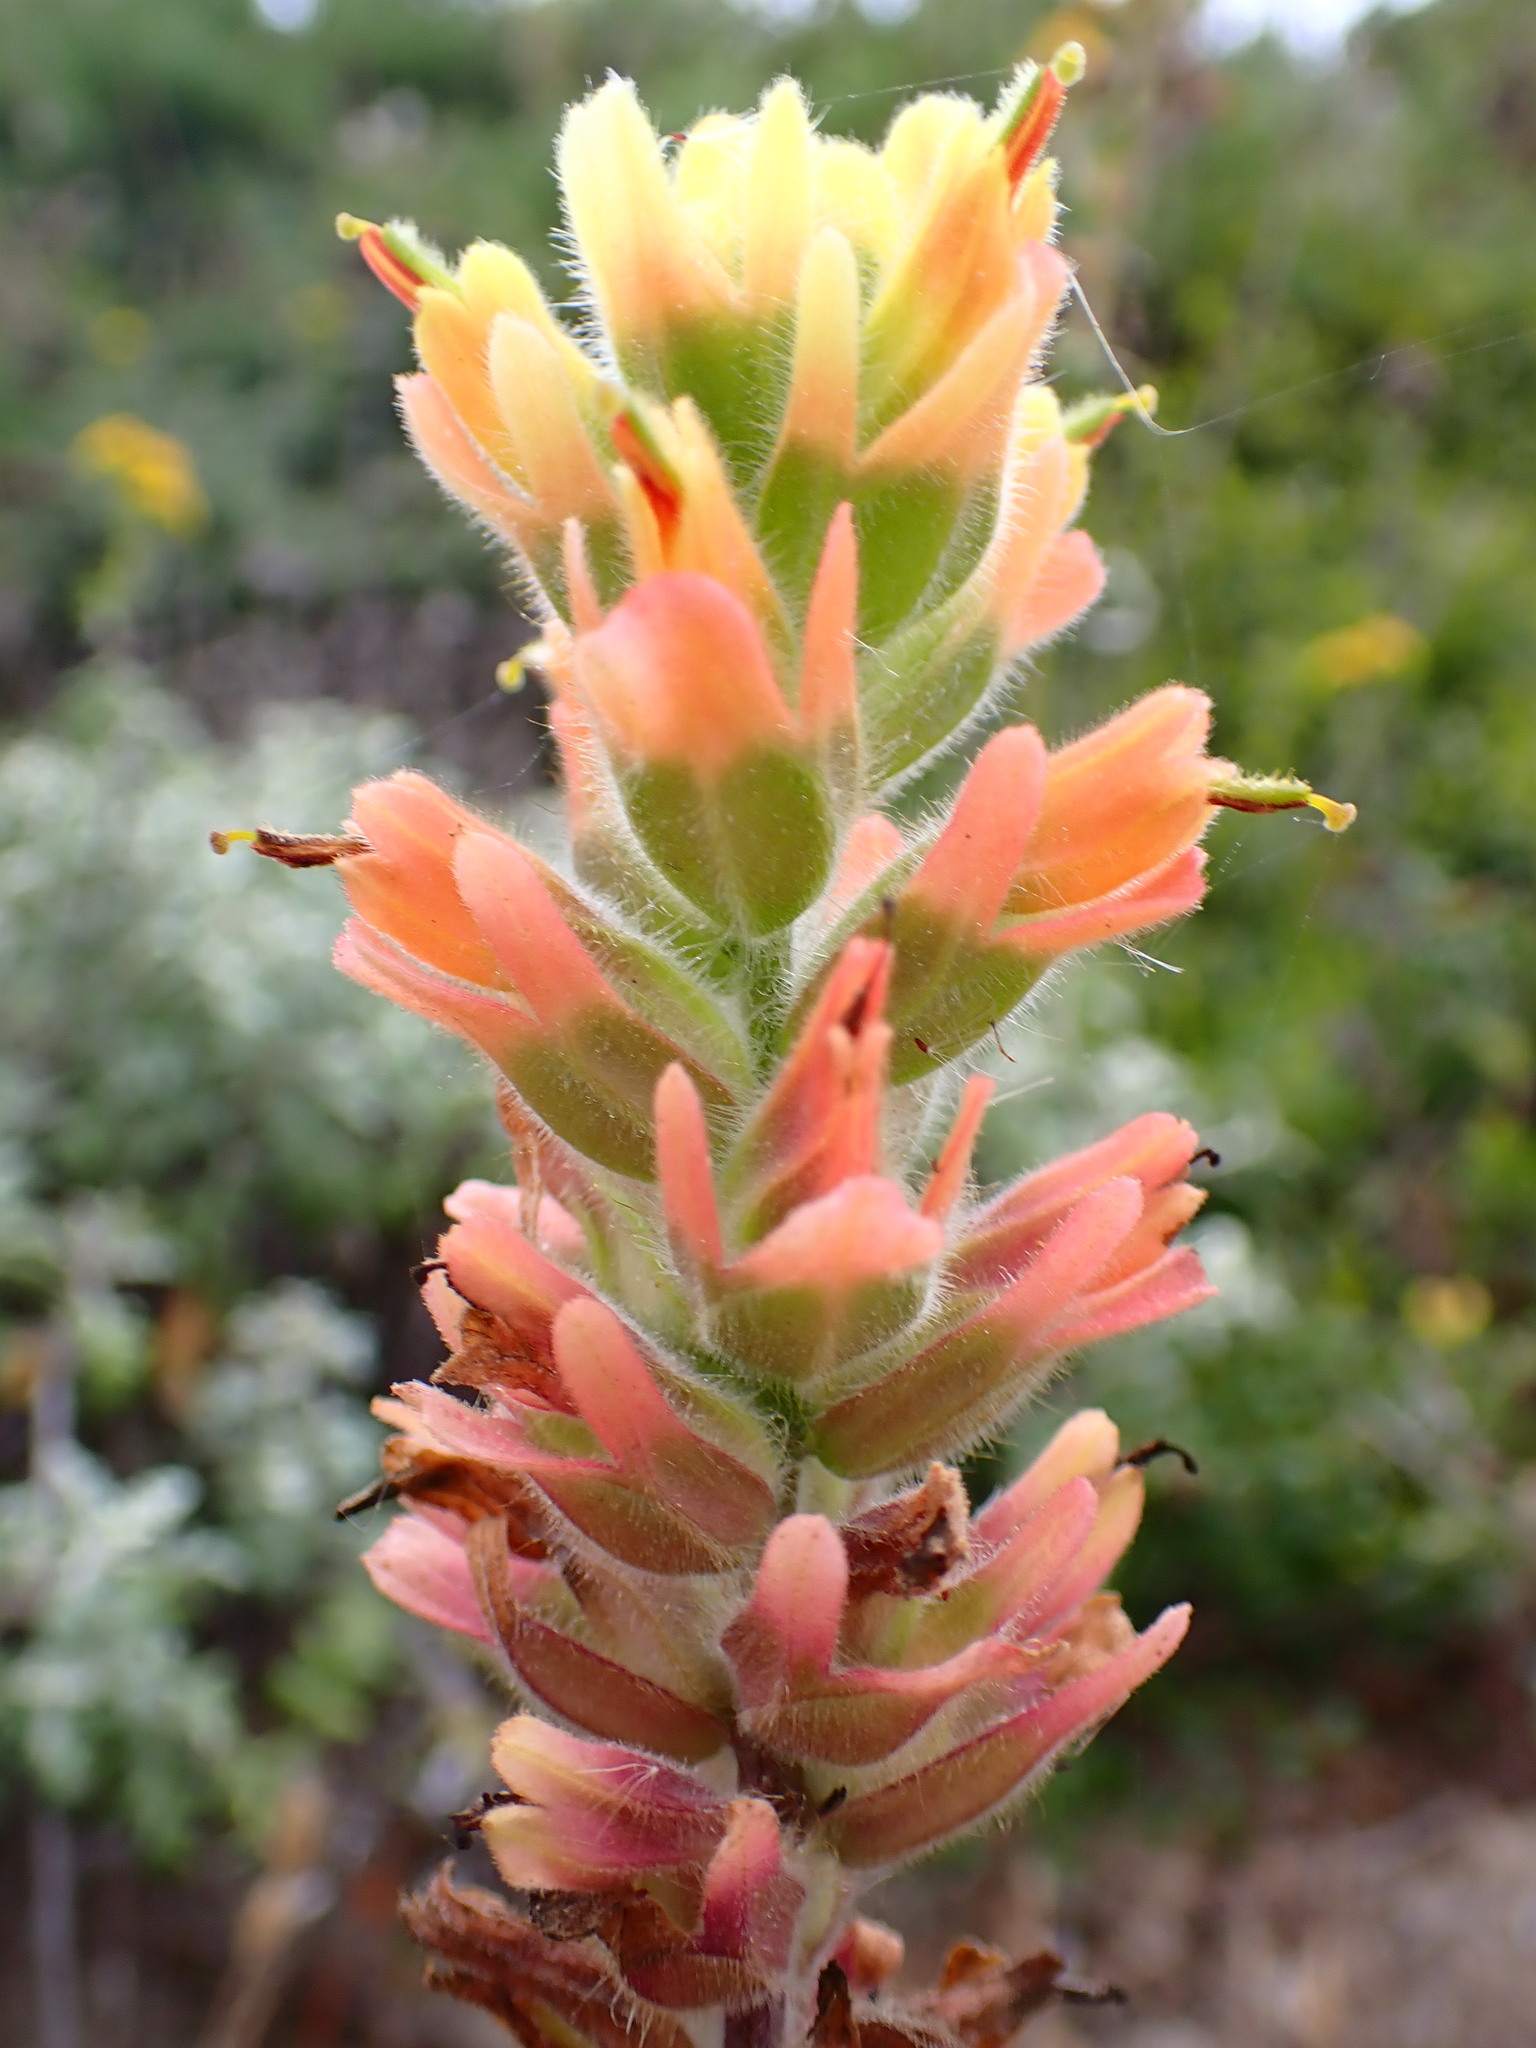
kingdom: Plantae
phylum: Tracheophyta
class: Magnoliopsida
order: Lamiales
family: Orobanchaceae
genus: Castilleja
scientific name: Castilleja wightii
